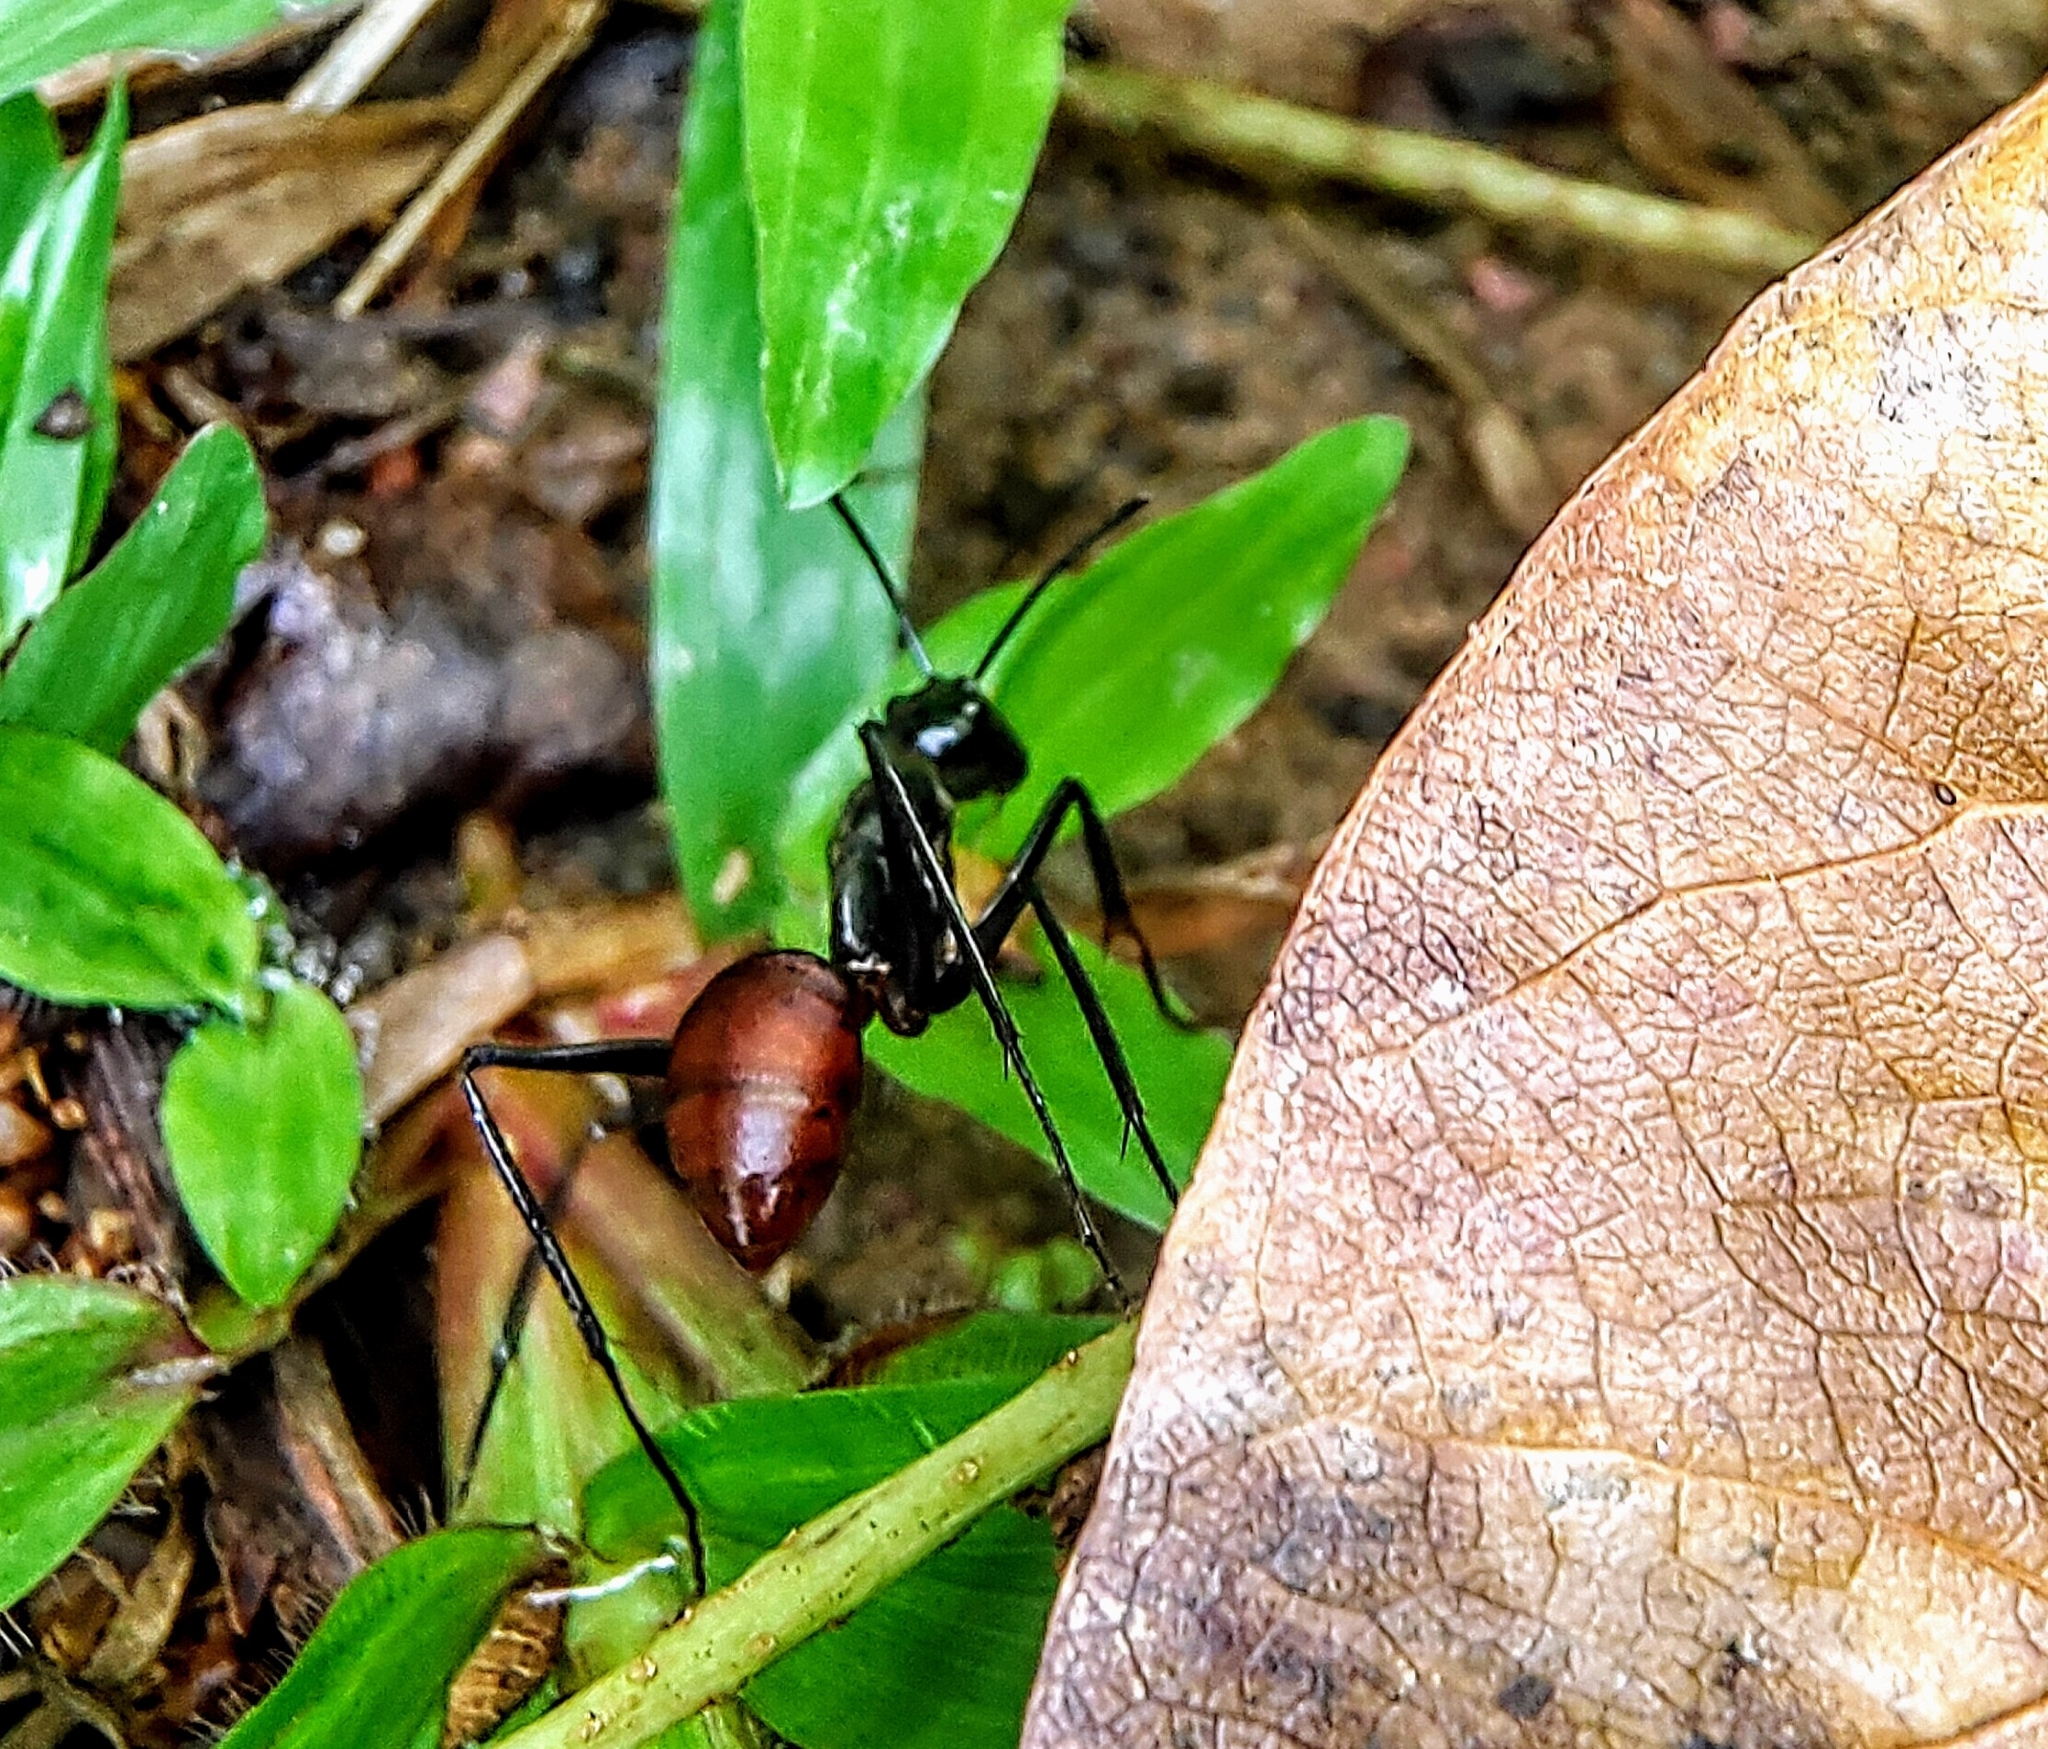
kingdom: Animalia
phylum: Arthropoda
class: Insecta
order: Hymenoptera
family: Formicidae
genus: Dinomyrmex
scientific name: Dinomyrmex
